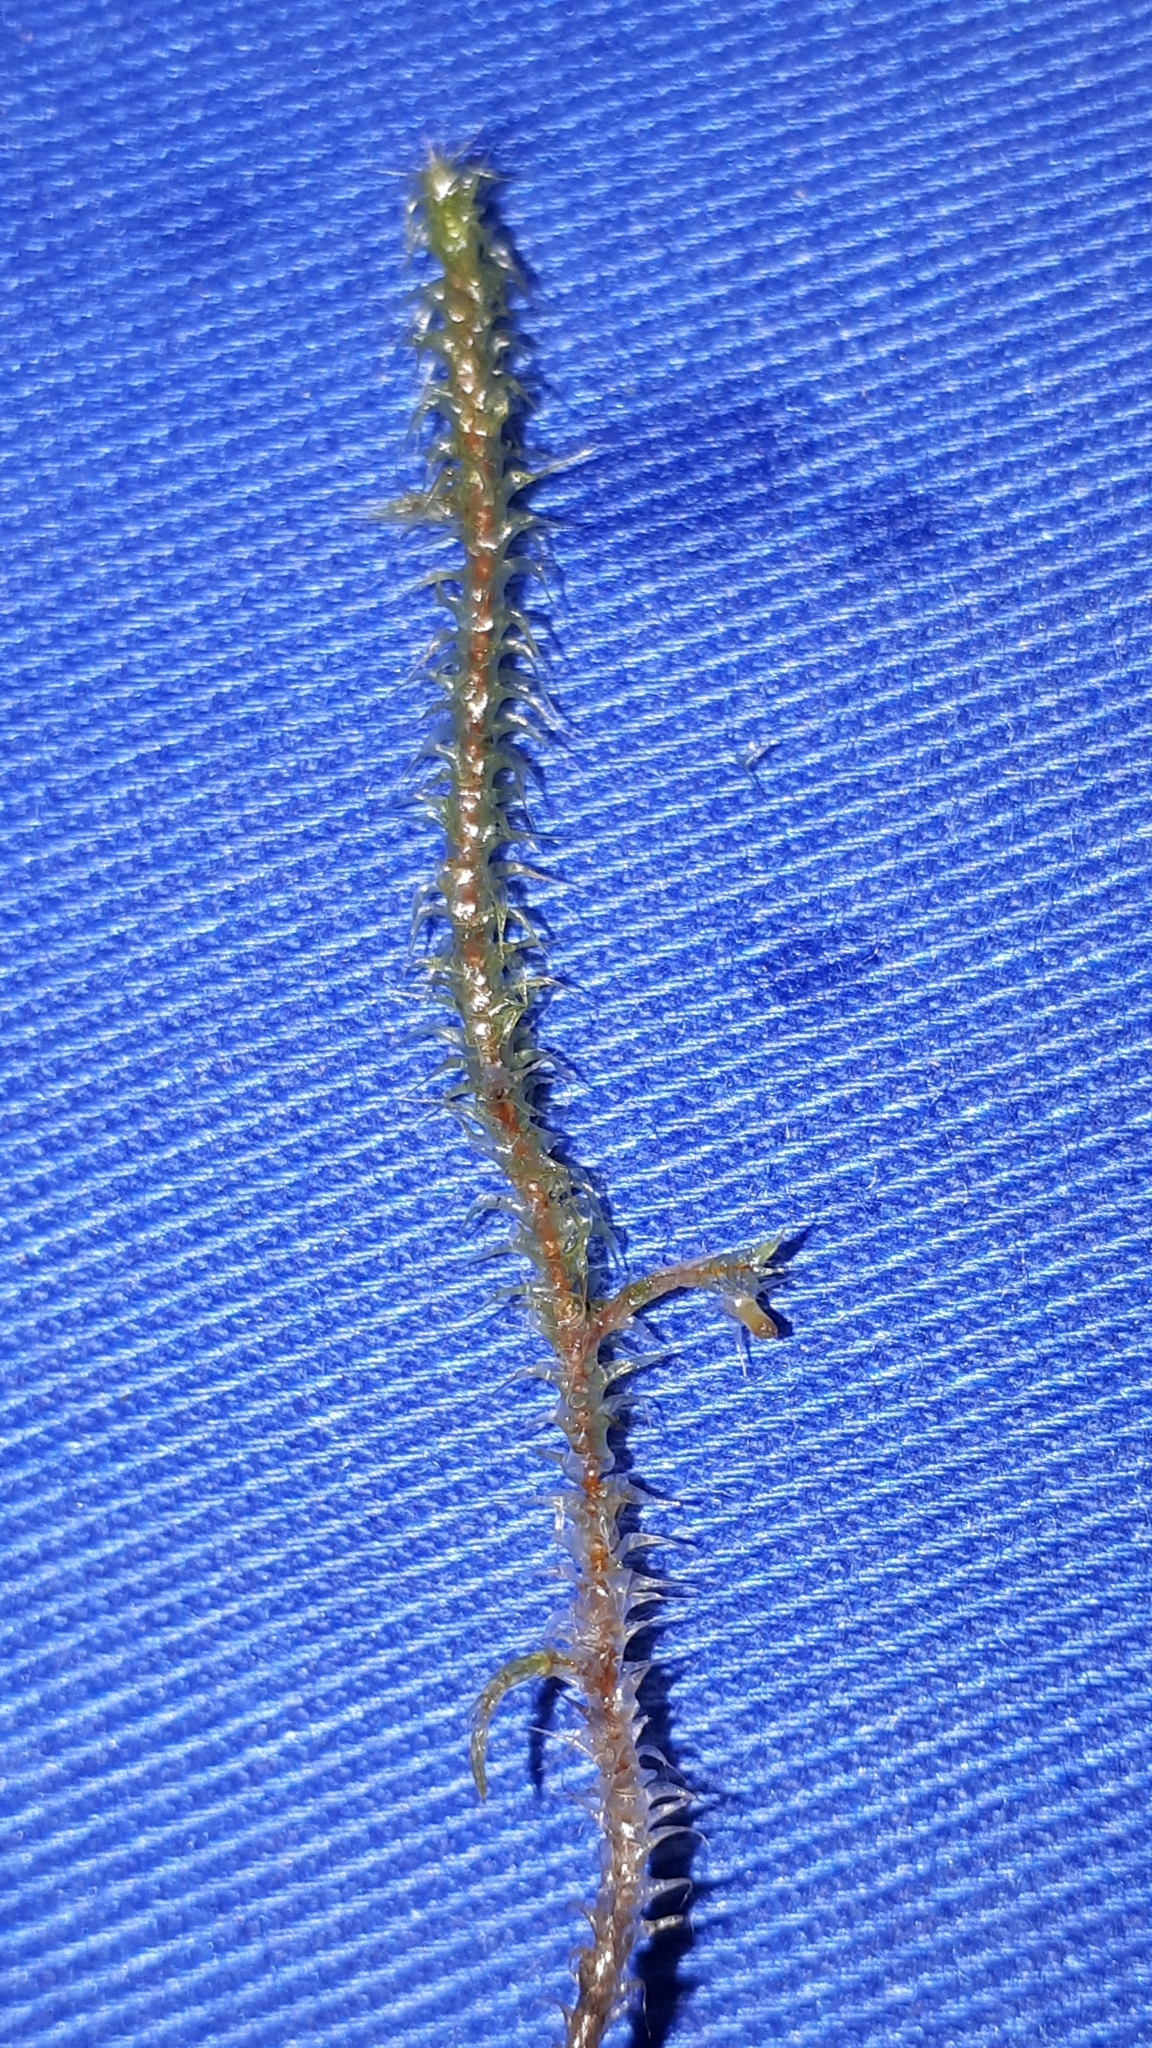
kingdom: Plantae
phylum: Bryophyta
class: Bryopsida
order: Hypnales
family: Hylocomiaceae
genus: Rhytidiadelphus
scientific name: Rhytidiadelphus squarrosus
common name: Springy turf-moss
